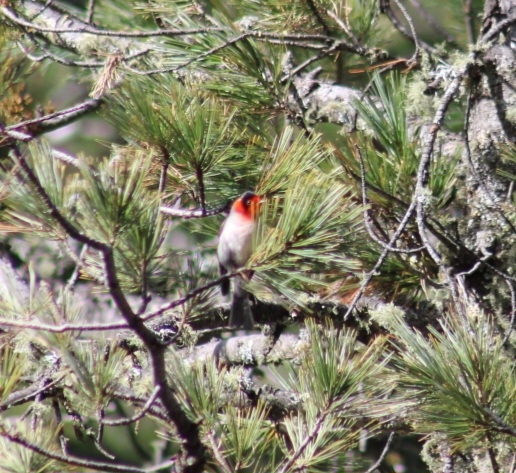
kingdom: Animalia
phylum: Chordata
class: Aves
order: Passeriformes
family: Parulidae
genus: Cardellina
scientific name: Cardellina rubrifrons
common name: Red-faced warbler
